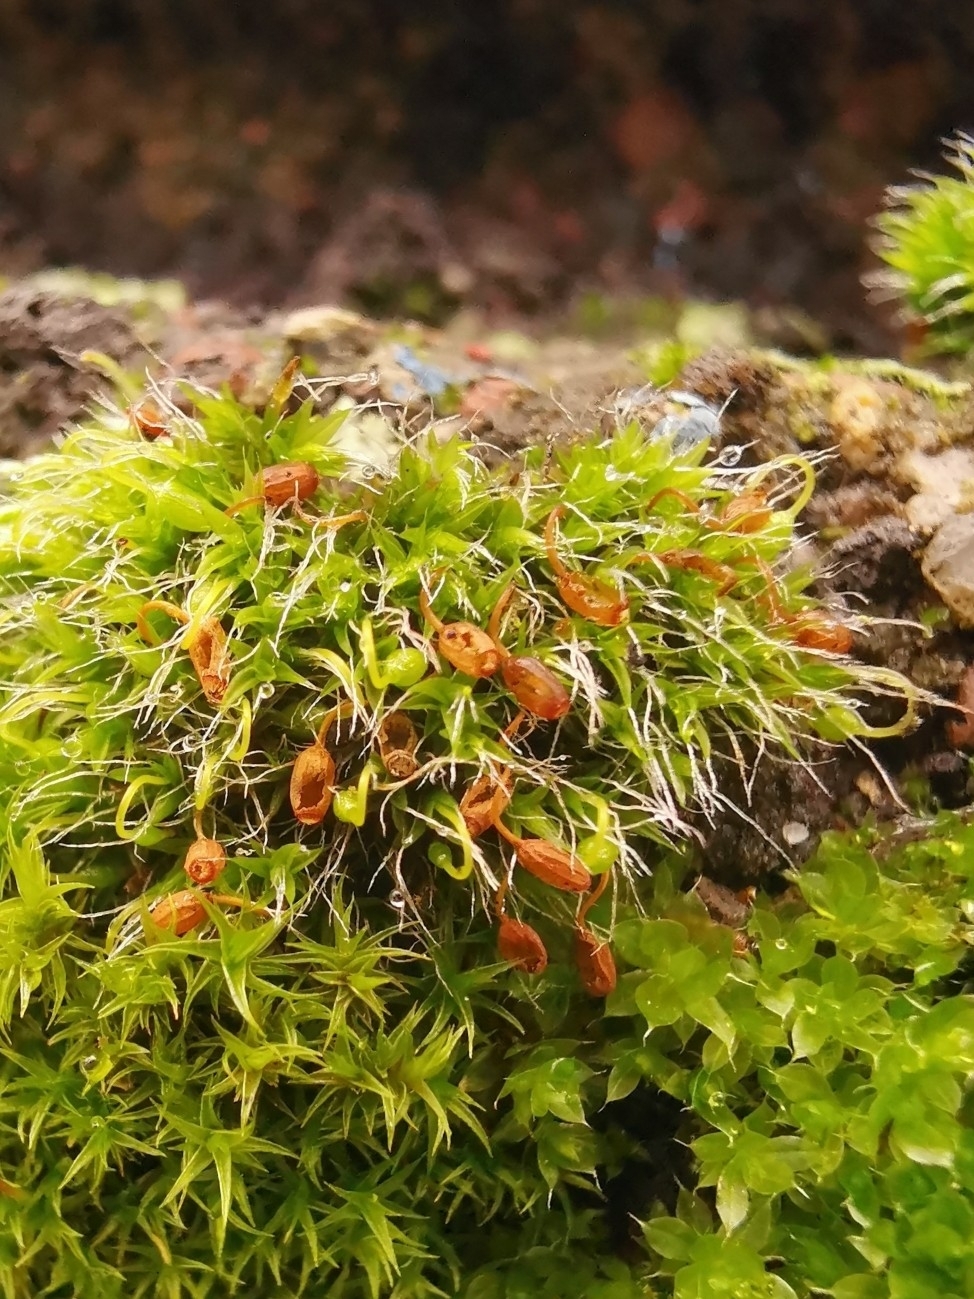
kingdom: Plantae
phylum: Bryophyta
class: Bryopsida
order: Grimmiales
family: Grimmiaceae
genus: Grimmia
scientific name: Grimmia pulvinata
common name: Grey-cushioned grimmia
